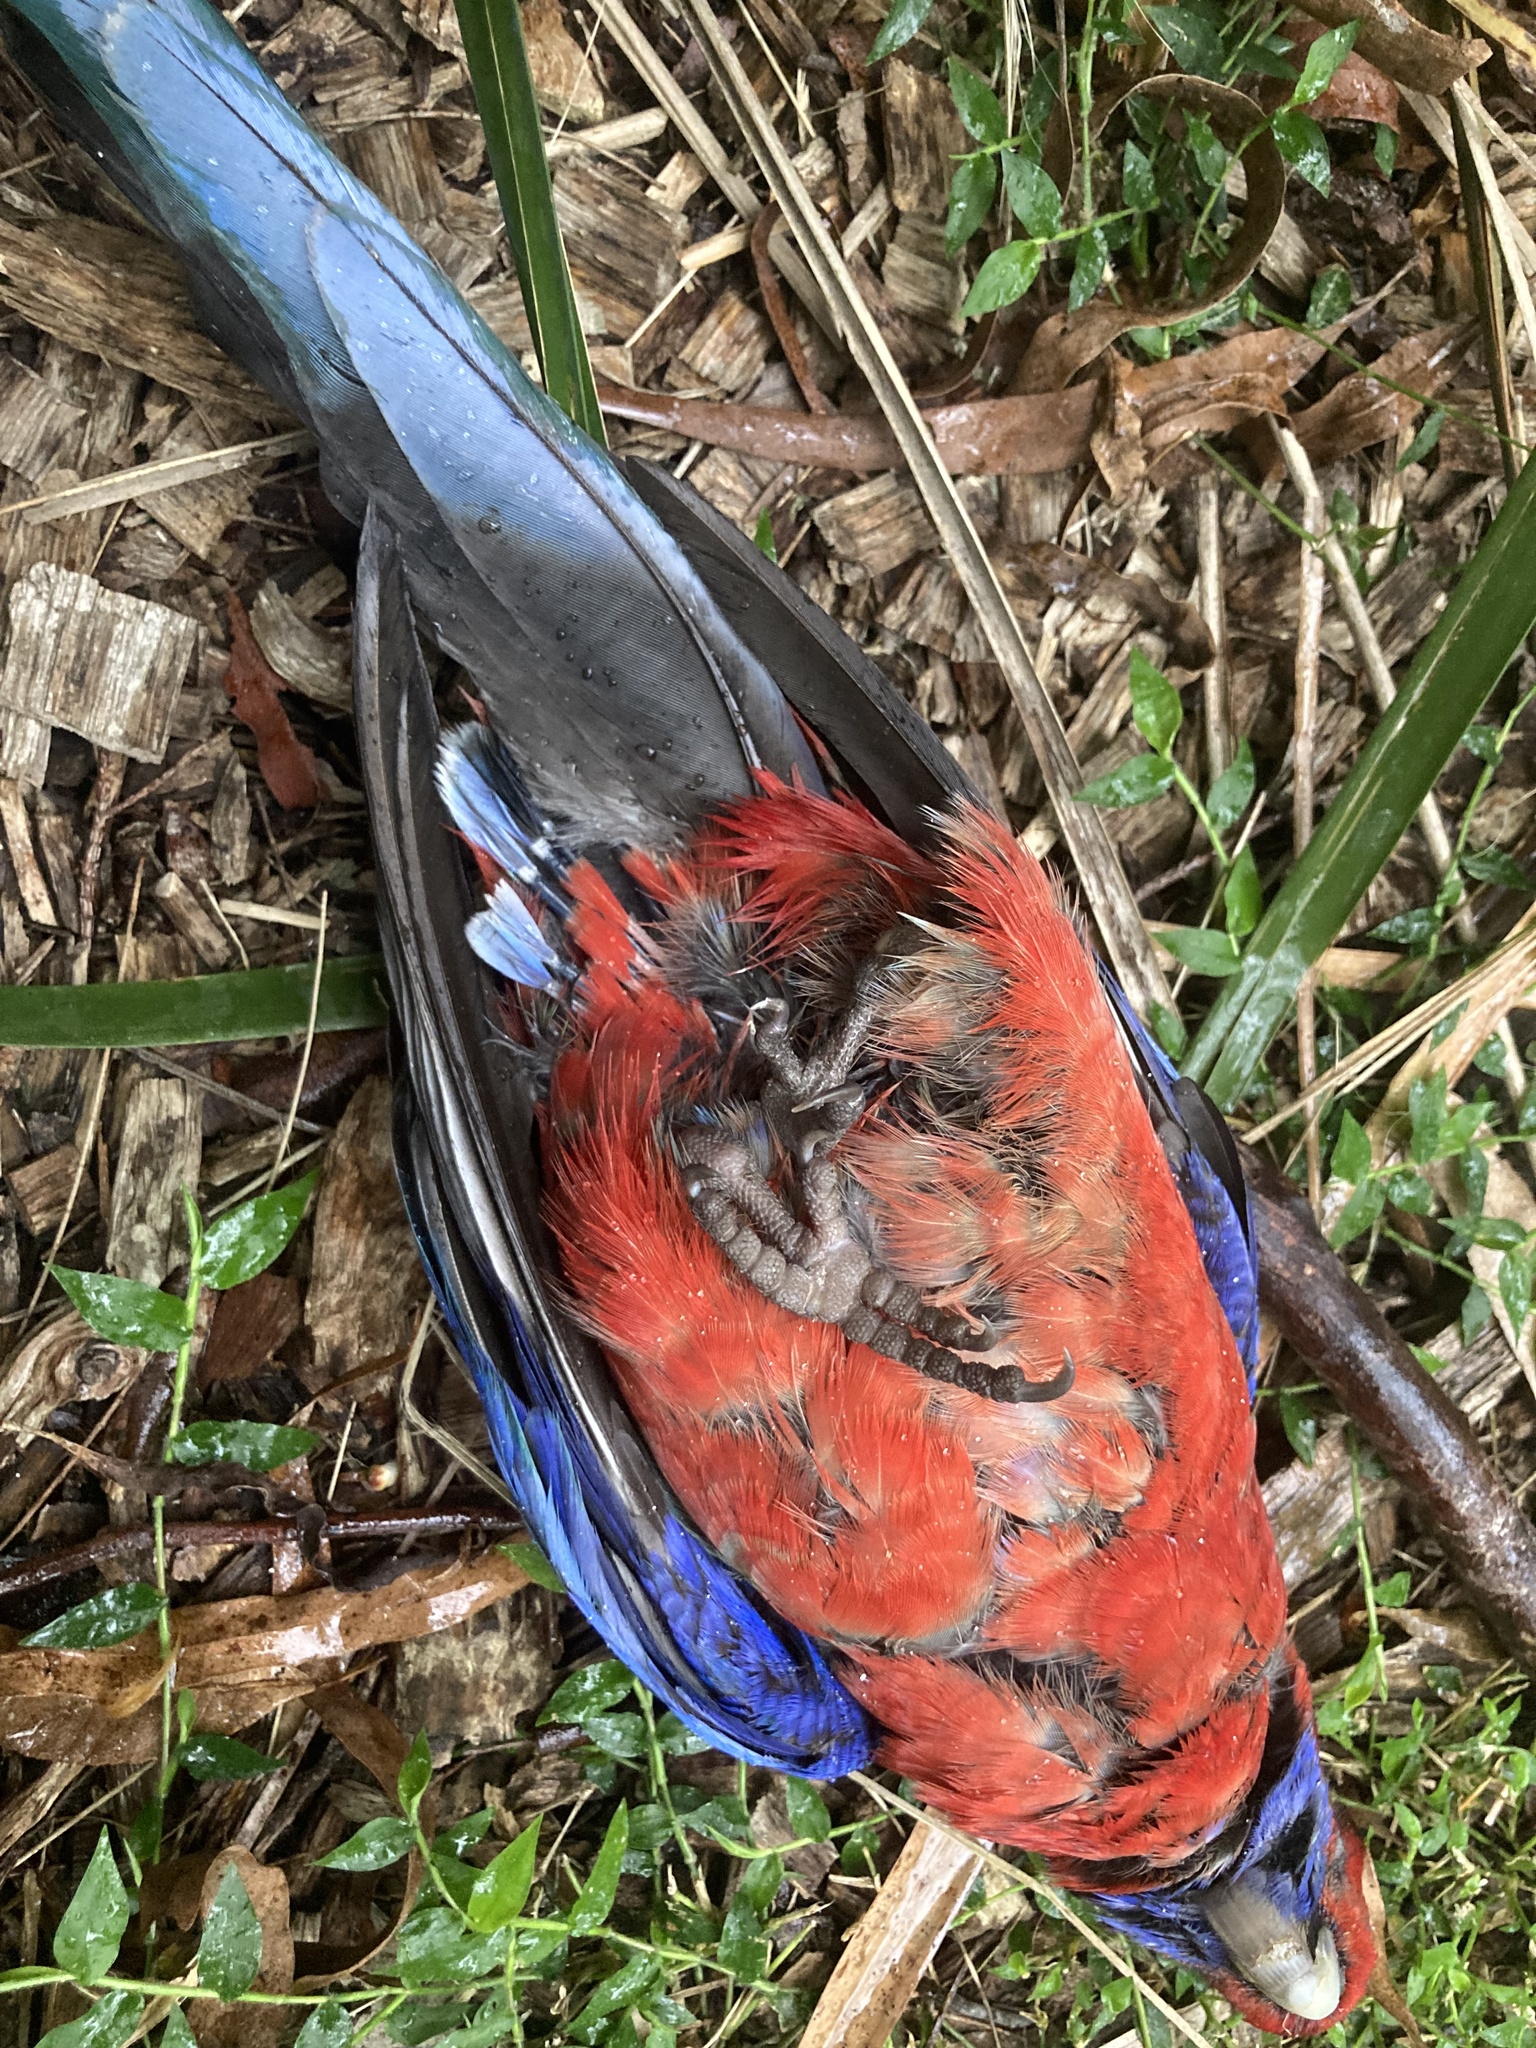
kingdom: Animalia
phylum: Chordata
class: Aves
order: Psittaciformes
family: Psittacidae
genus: Platycercus
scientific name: Platycercus elegans
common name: Crimson rosella
